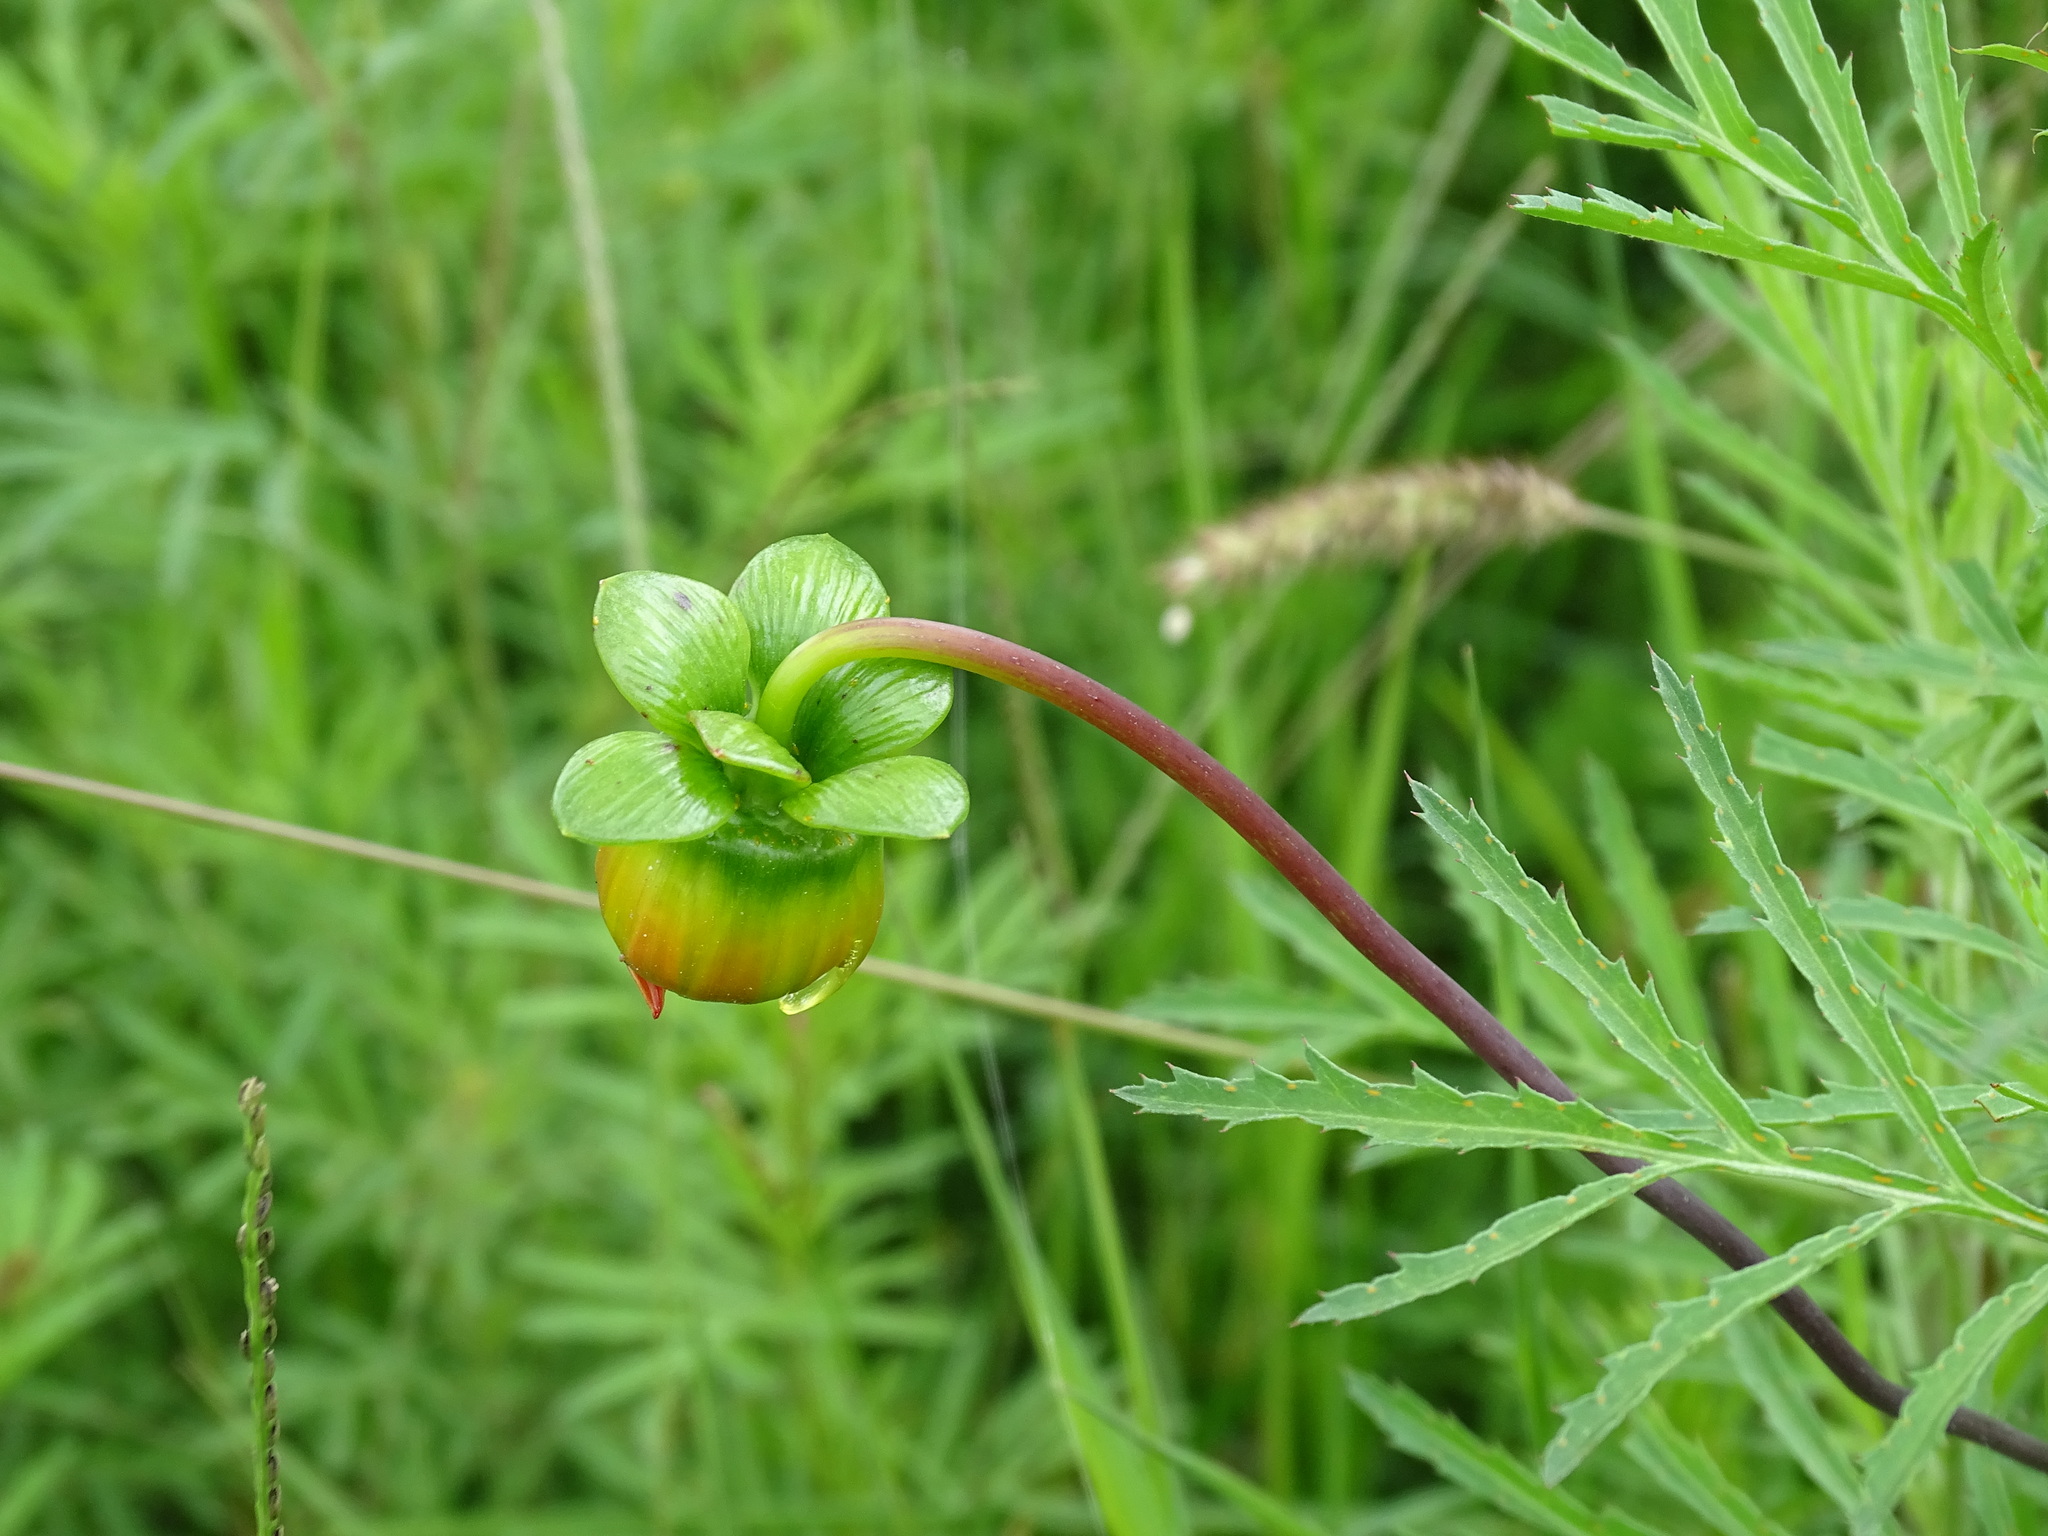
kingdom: Plantae
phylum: Tracheophyta
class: Magnoliopsida
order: Asterales
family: Asteraceae
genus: Dahlia
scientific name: Dahlia coccinea
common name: Red dahlia
